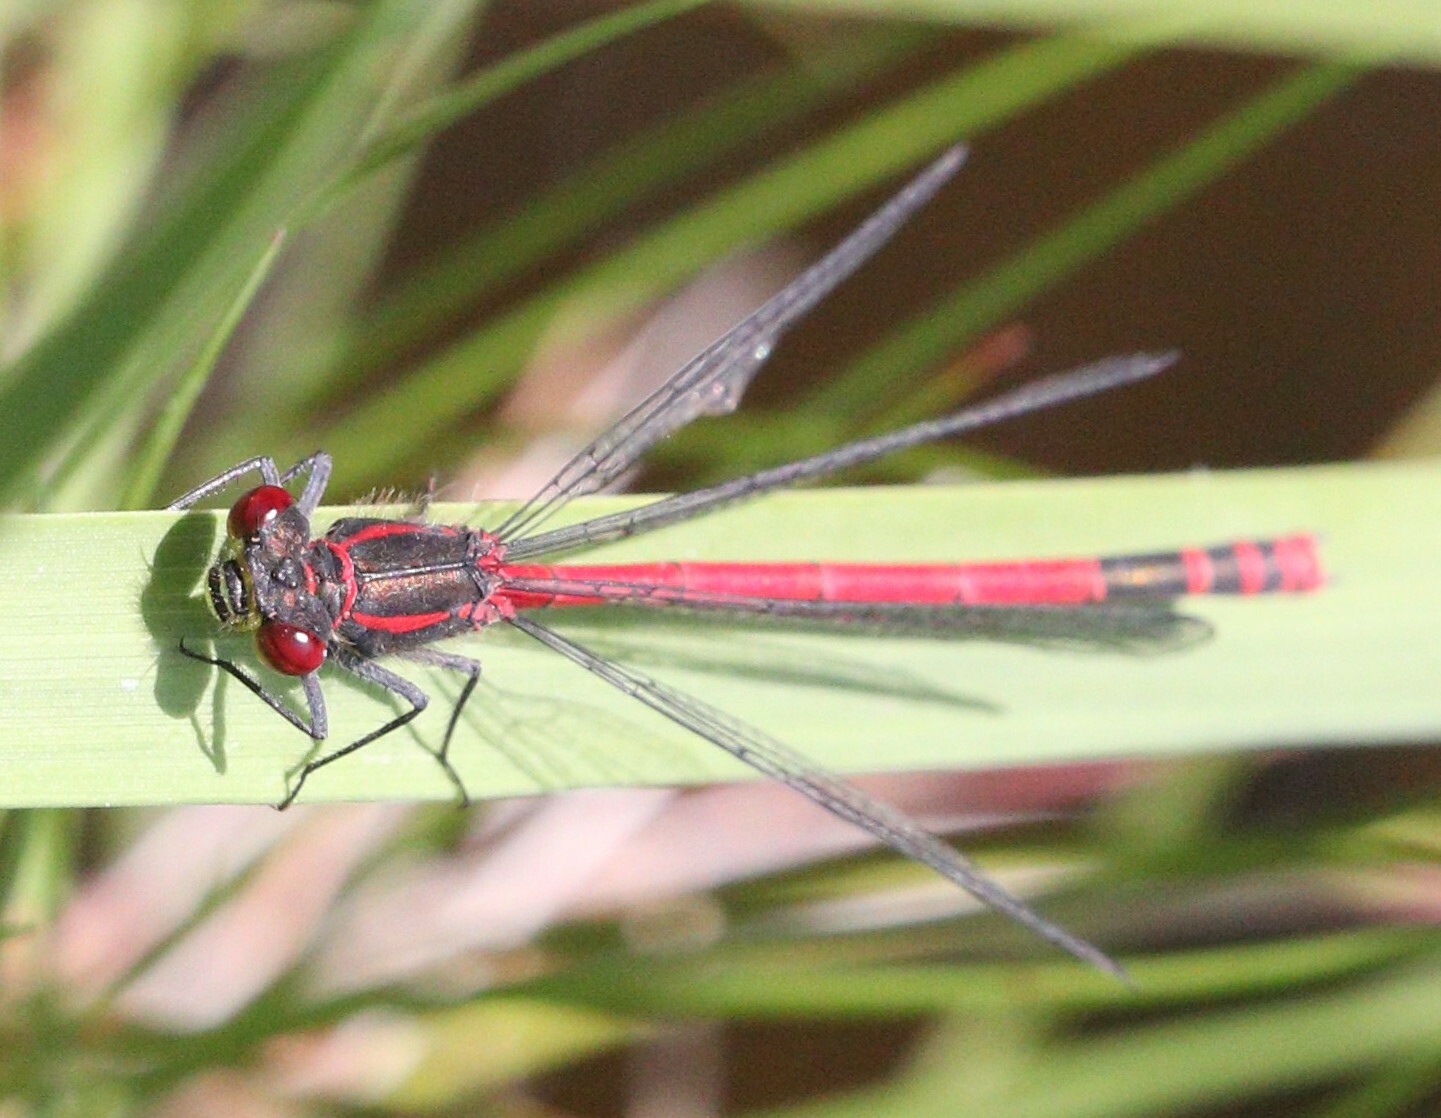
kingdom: Animalia
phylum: Arthropoda
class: Insecta
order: Odonata
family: Coenagrionidae
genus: Pyrrhosoma
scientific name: Pyrrhosoma nymphula
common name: Large red damsel
